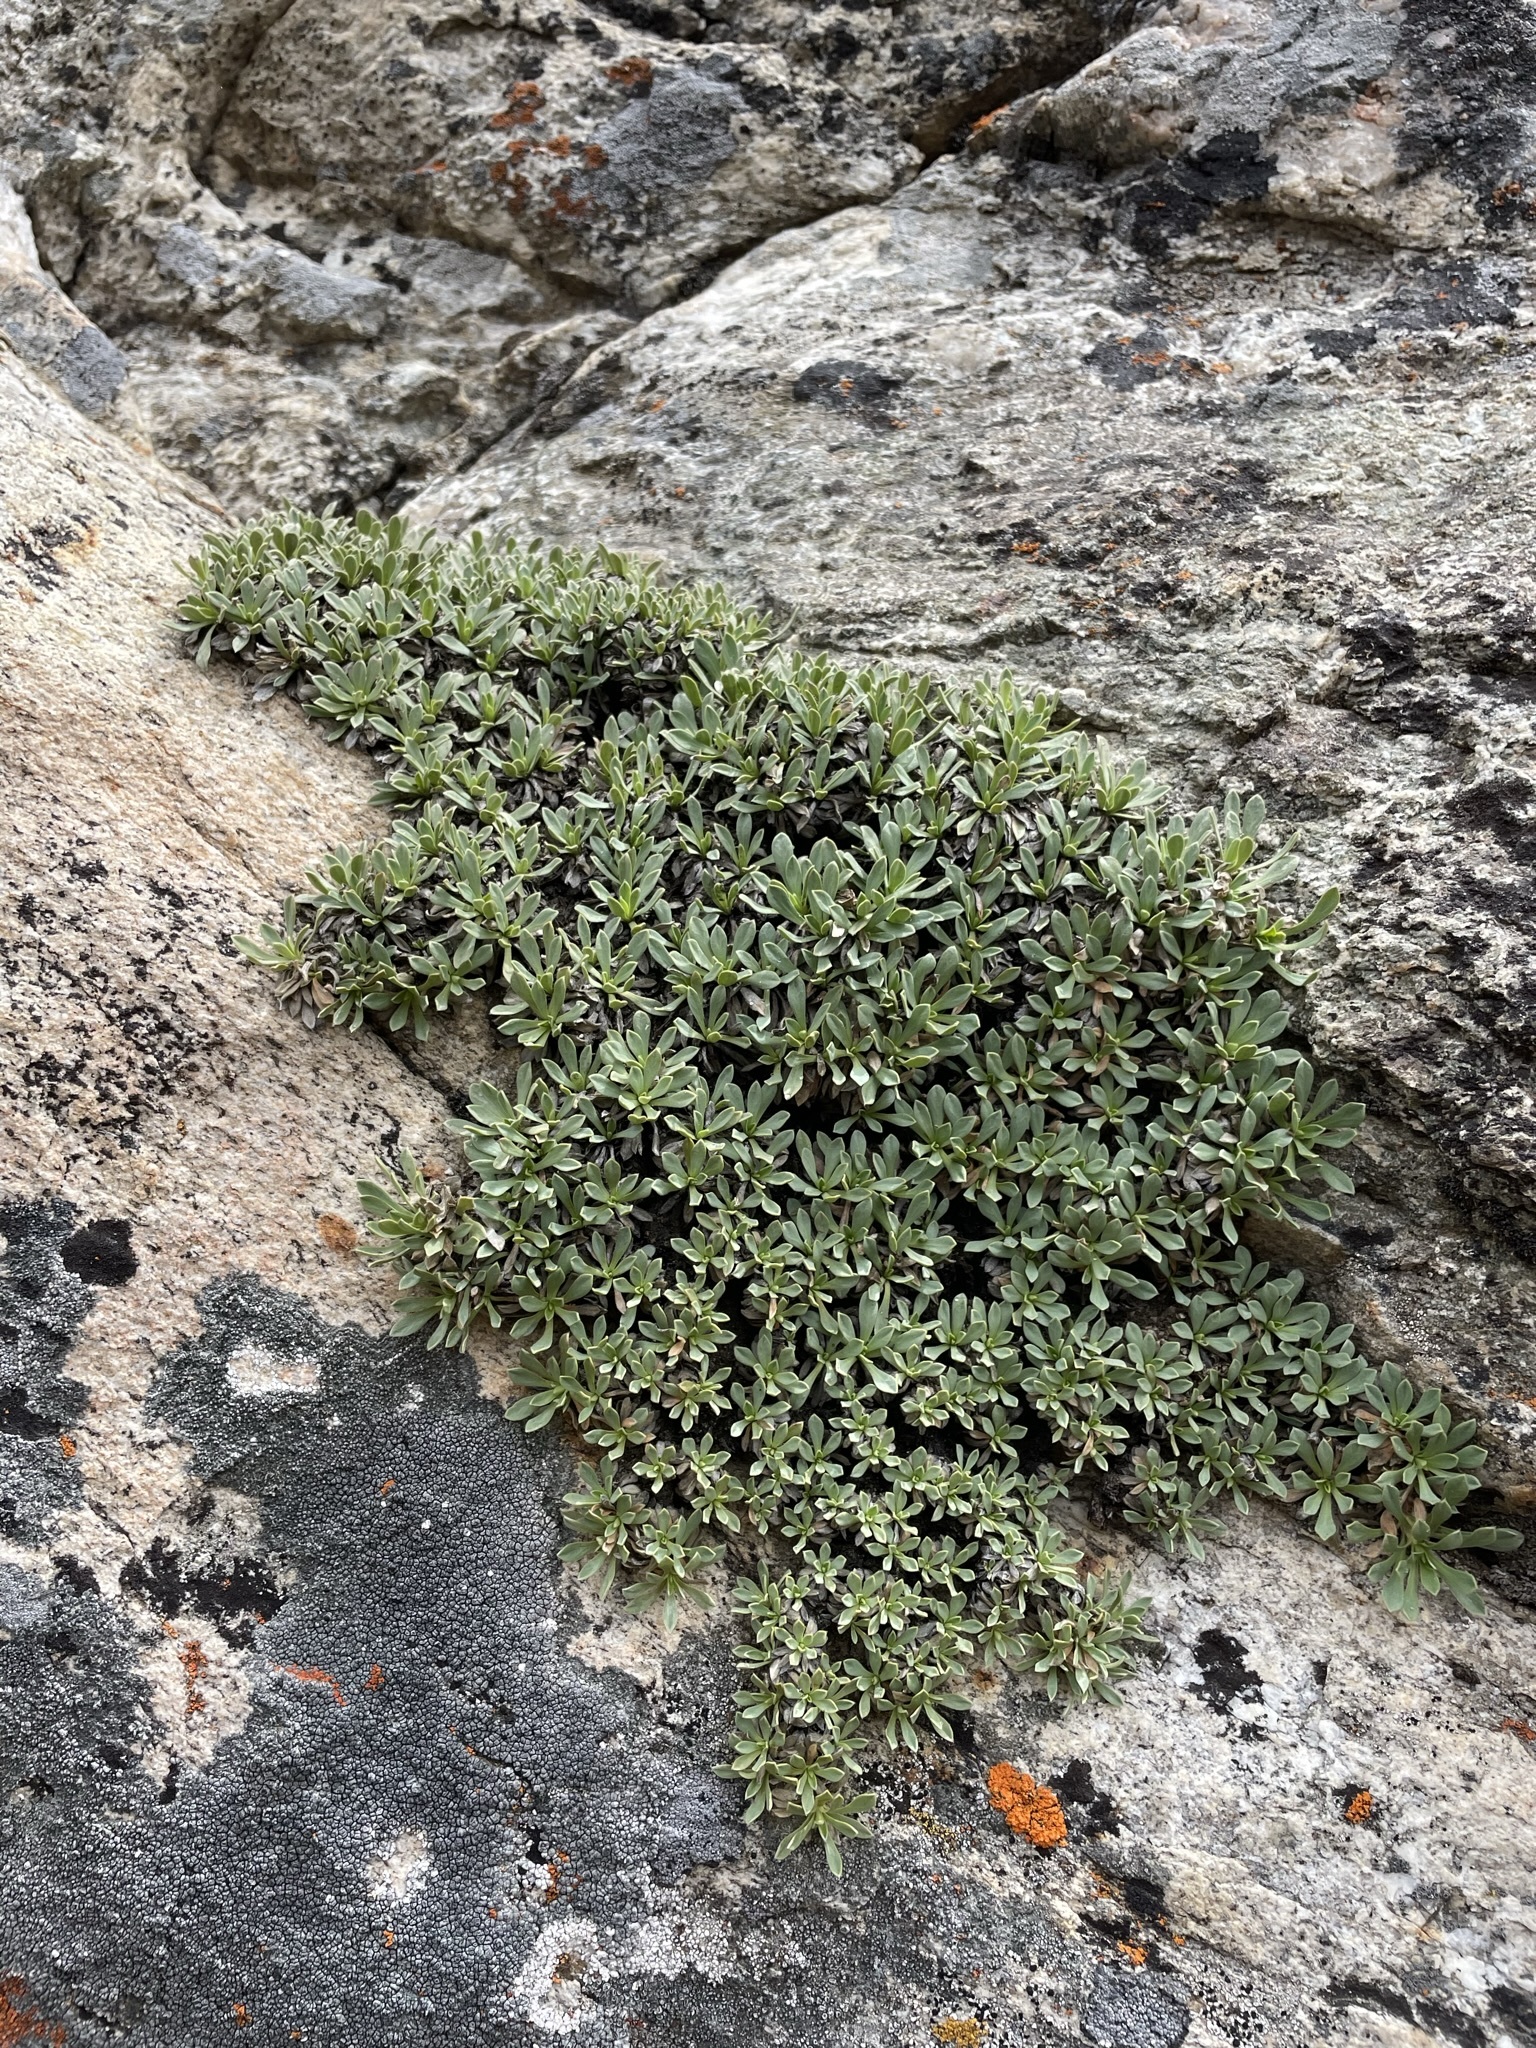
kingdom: Plantae
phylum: Tracheophyta
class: Magnoliopsida
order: Rosales
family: Rosaceae
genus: Petrophytum
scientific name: Petrophytum caespitosum
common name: Mat rockspirea
